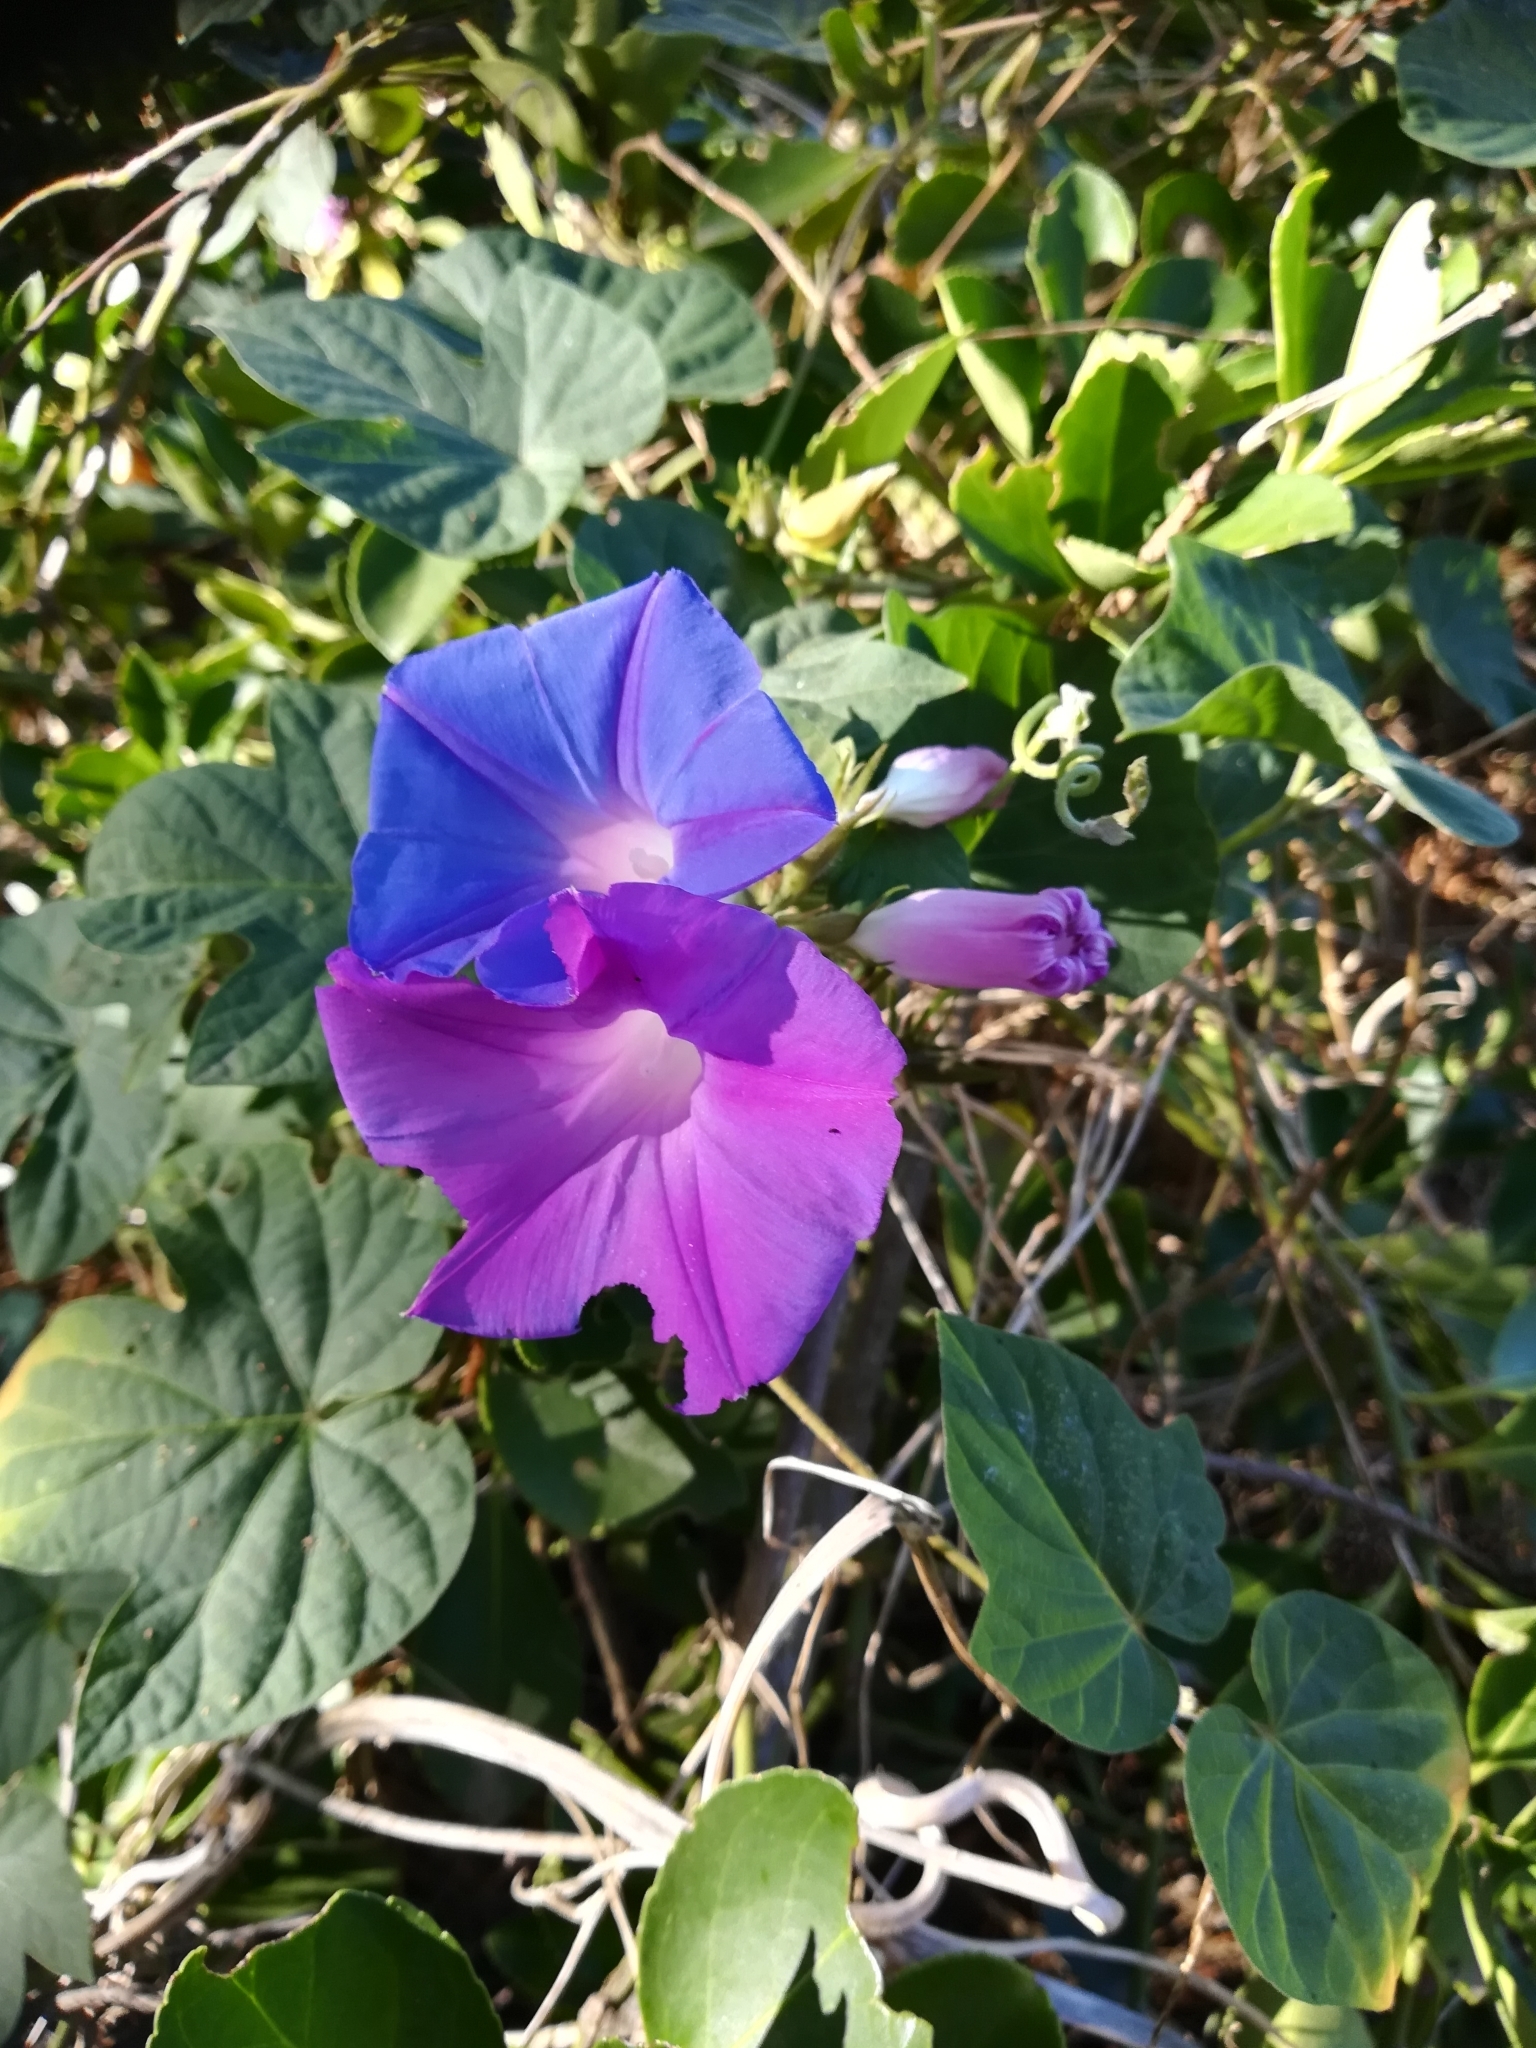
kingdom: Plantae
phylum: Tracheophyta
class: Magnoliopsida
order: Solanales
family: Convolvulaceae
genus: Ipomoea
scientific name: Ipomoea indica
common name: Blue dawnflower
